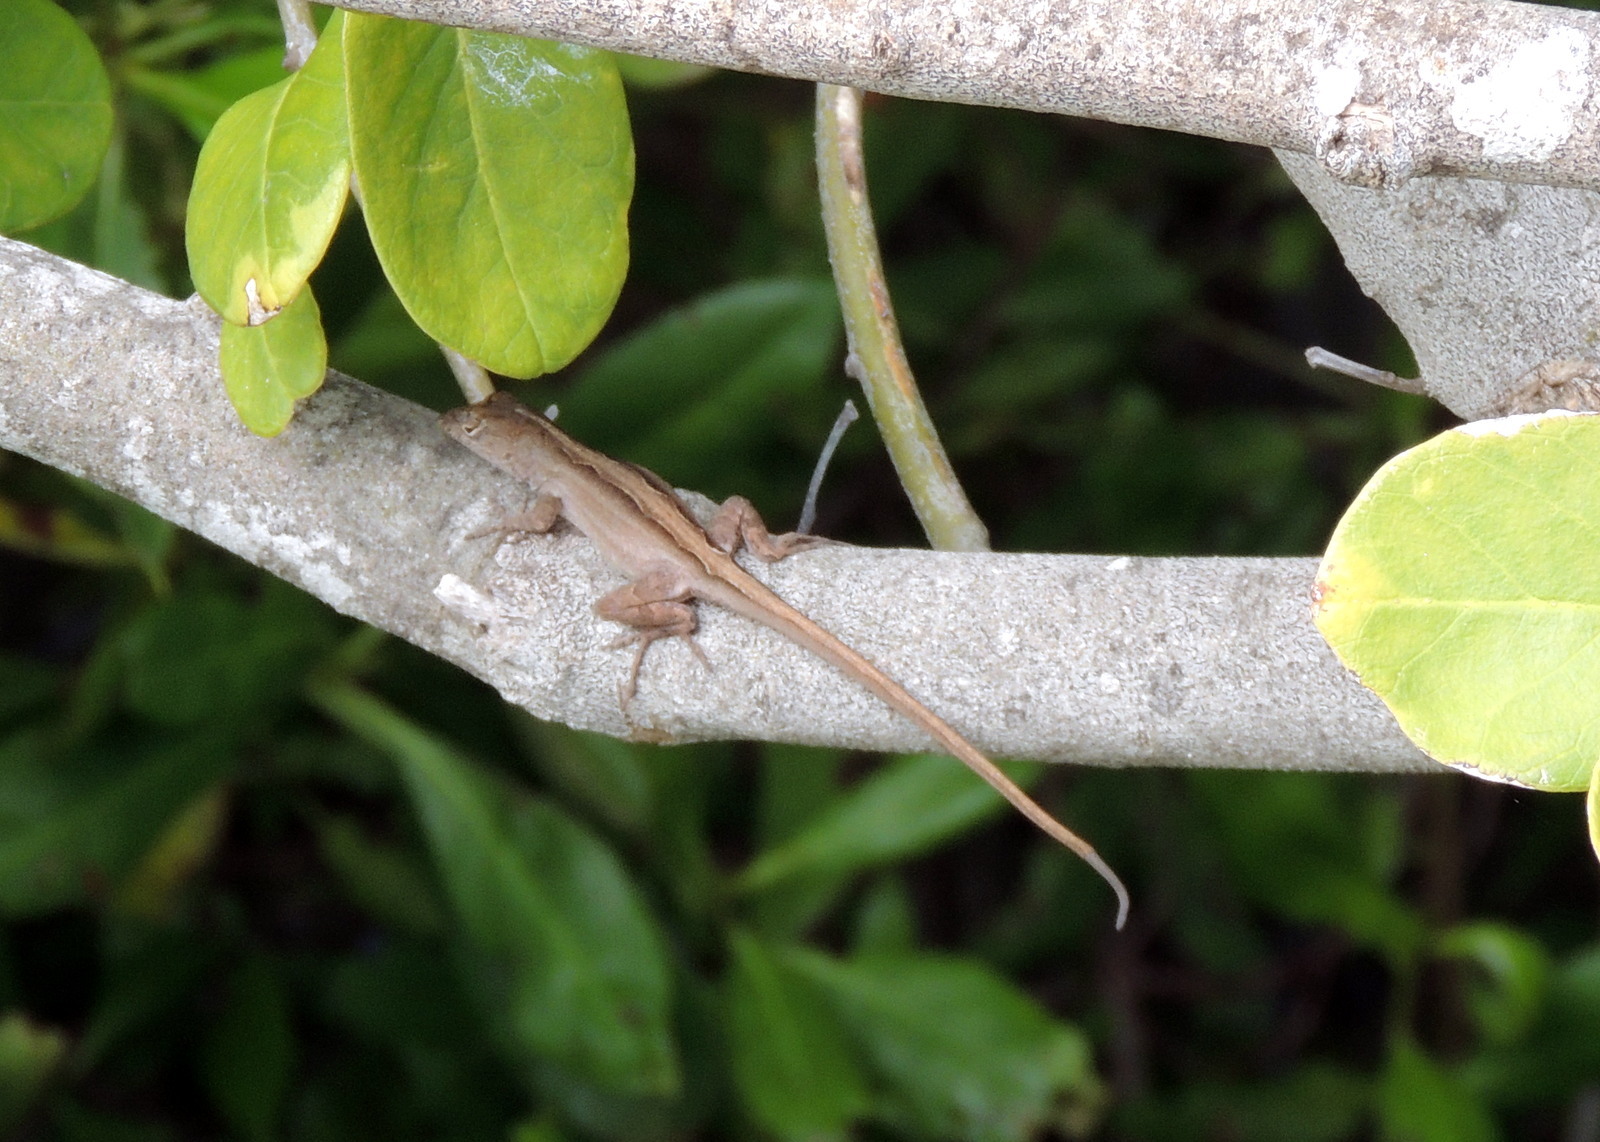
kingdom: Animalia
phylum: Chordata
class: Squamata
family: Dactyloidae
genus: Anolis
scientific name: Anolis sagrei
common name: Brown anole
